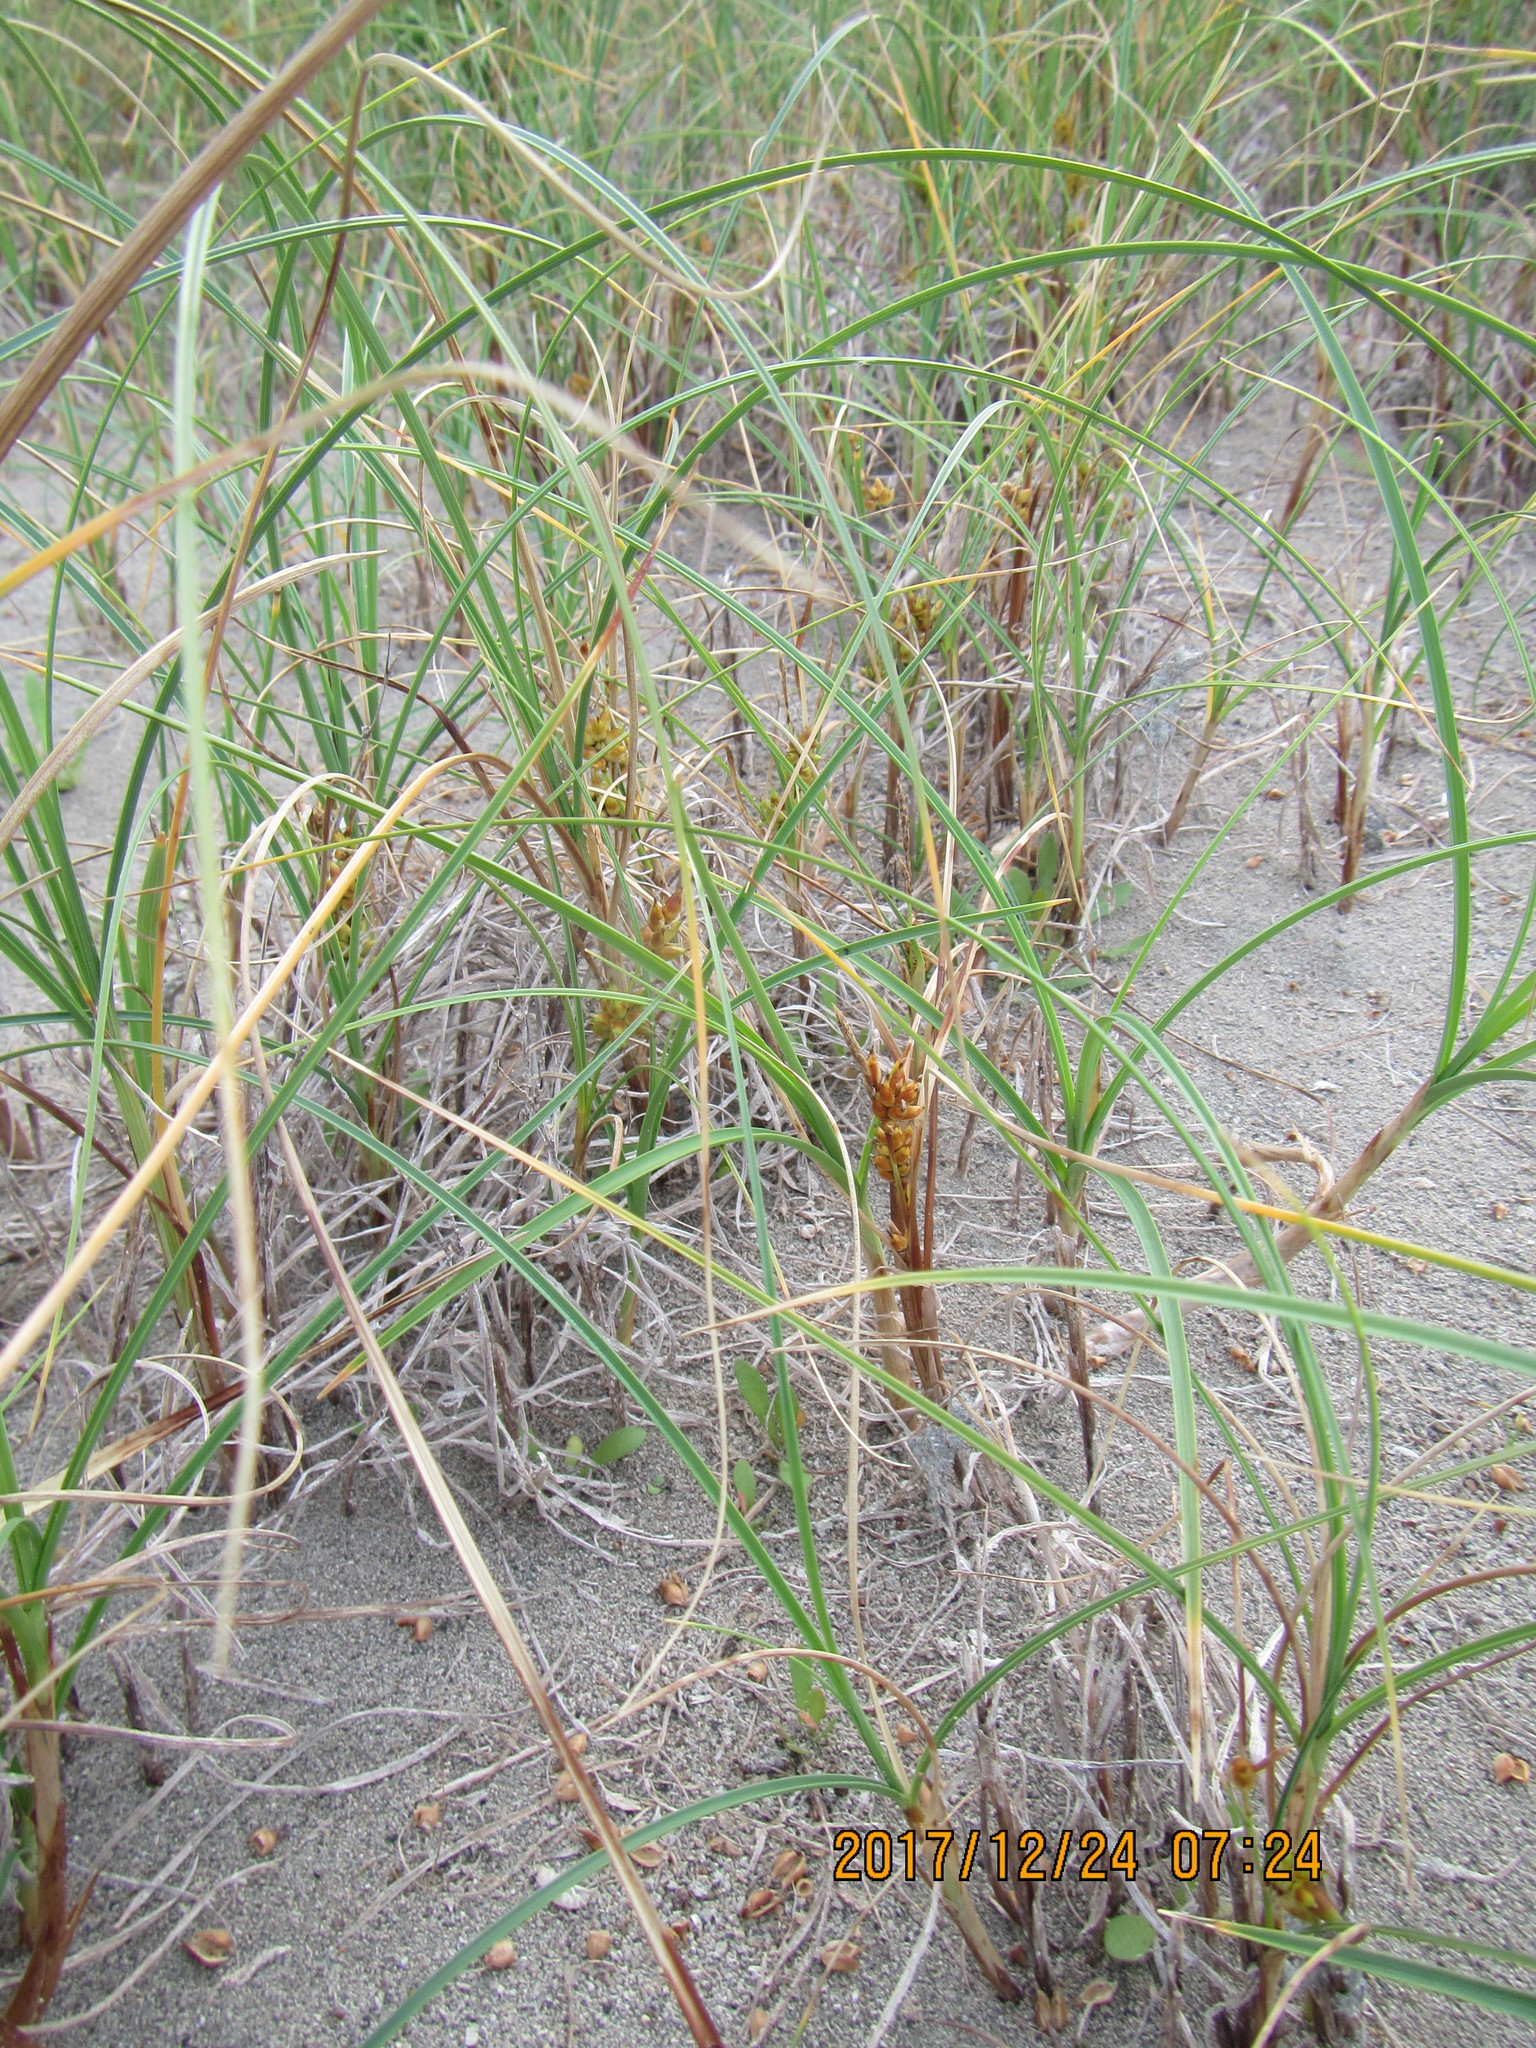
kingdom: Plantae
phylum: Tracheophyta
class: Liliopsida
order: Poales
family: Cyperaceae
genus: Carex
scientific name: Carex pumila
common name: Dwarf sedge
